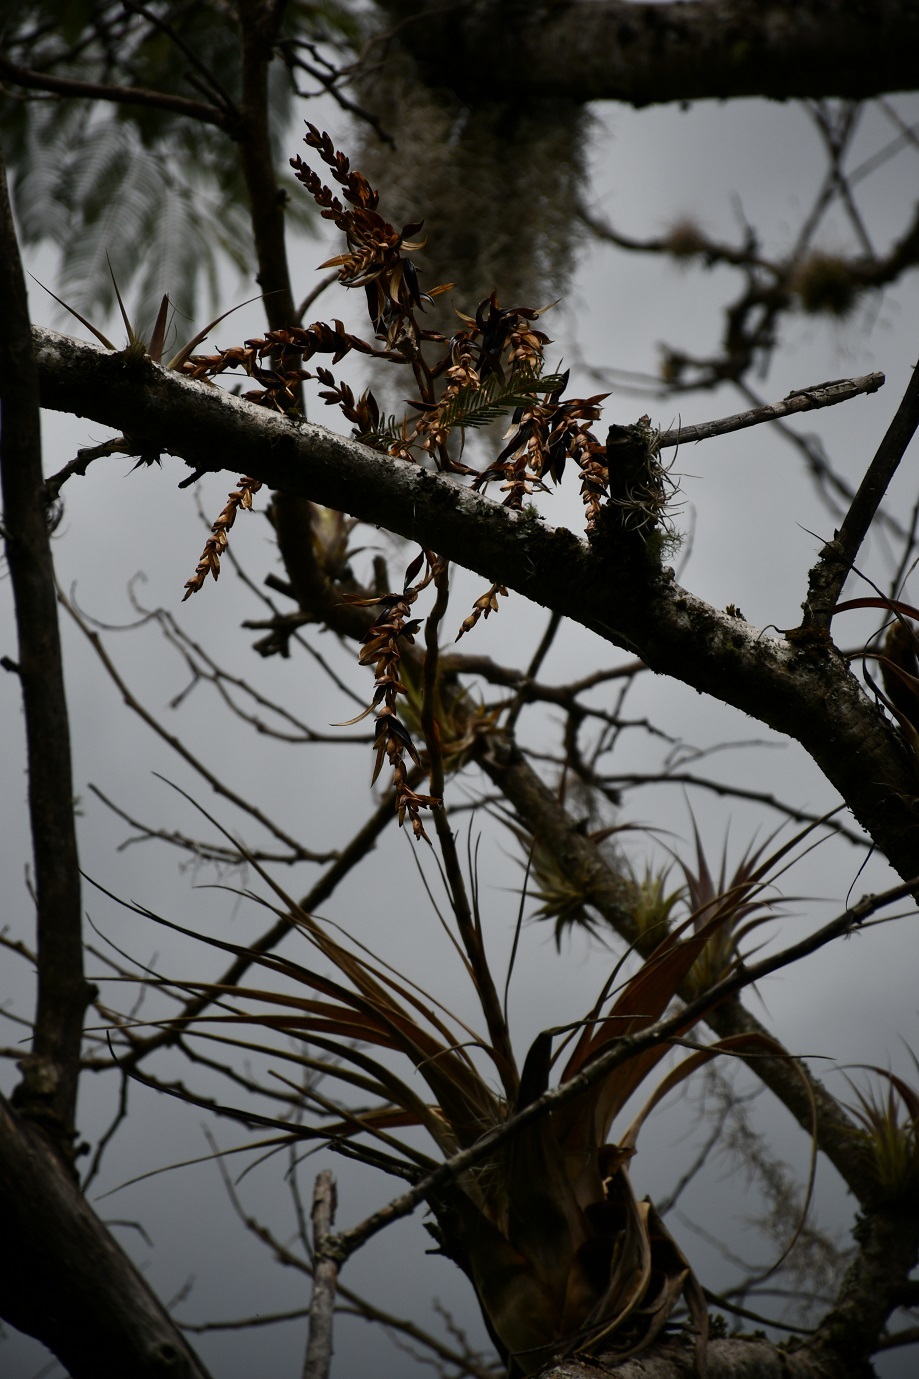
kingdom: Plantae
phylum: Tracheophyta
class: Liliopsida
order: Poales
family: Bromeliaceae
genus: Tillandsia
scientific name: Tillandsia makoyana
